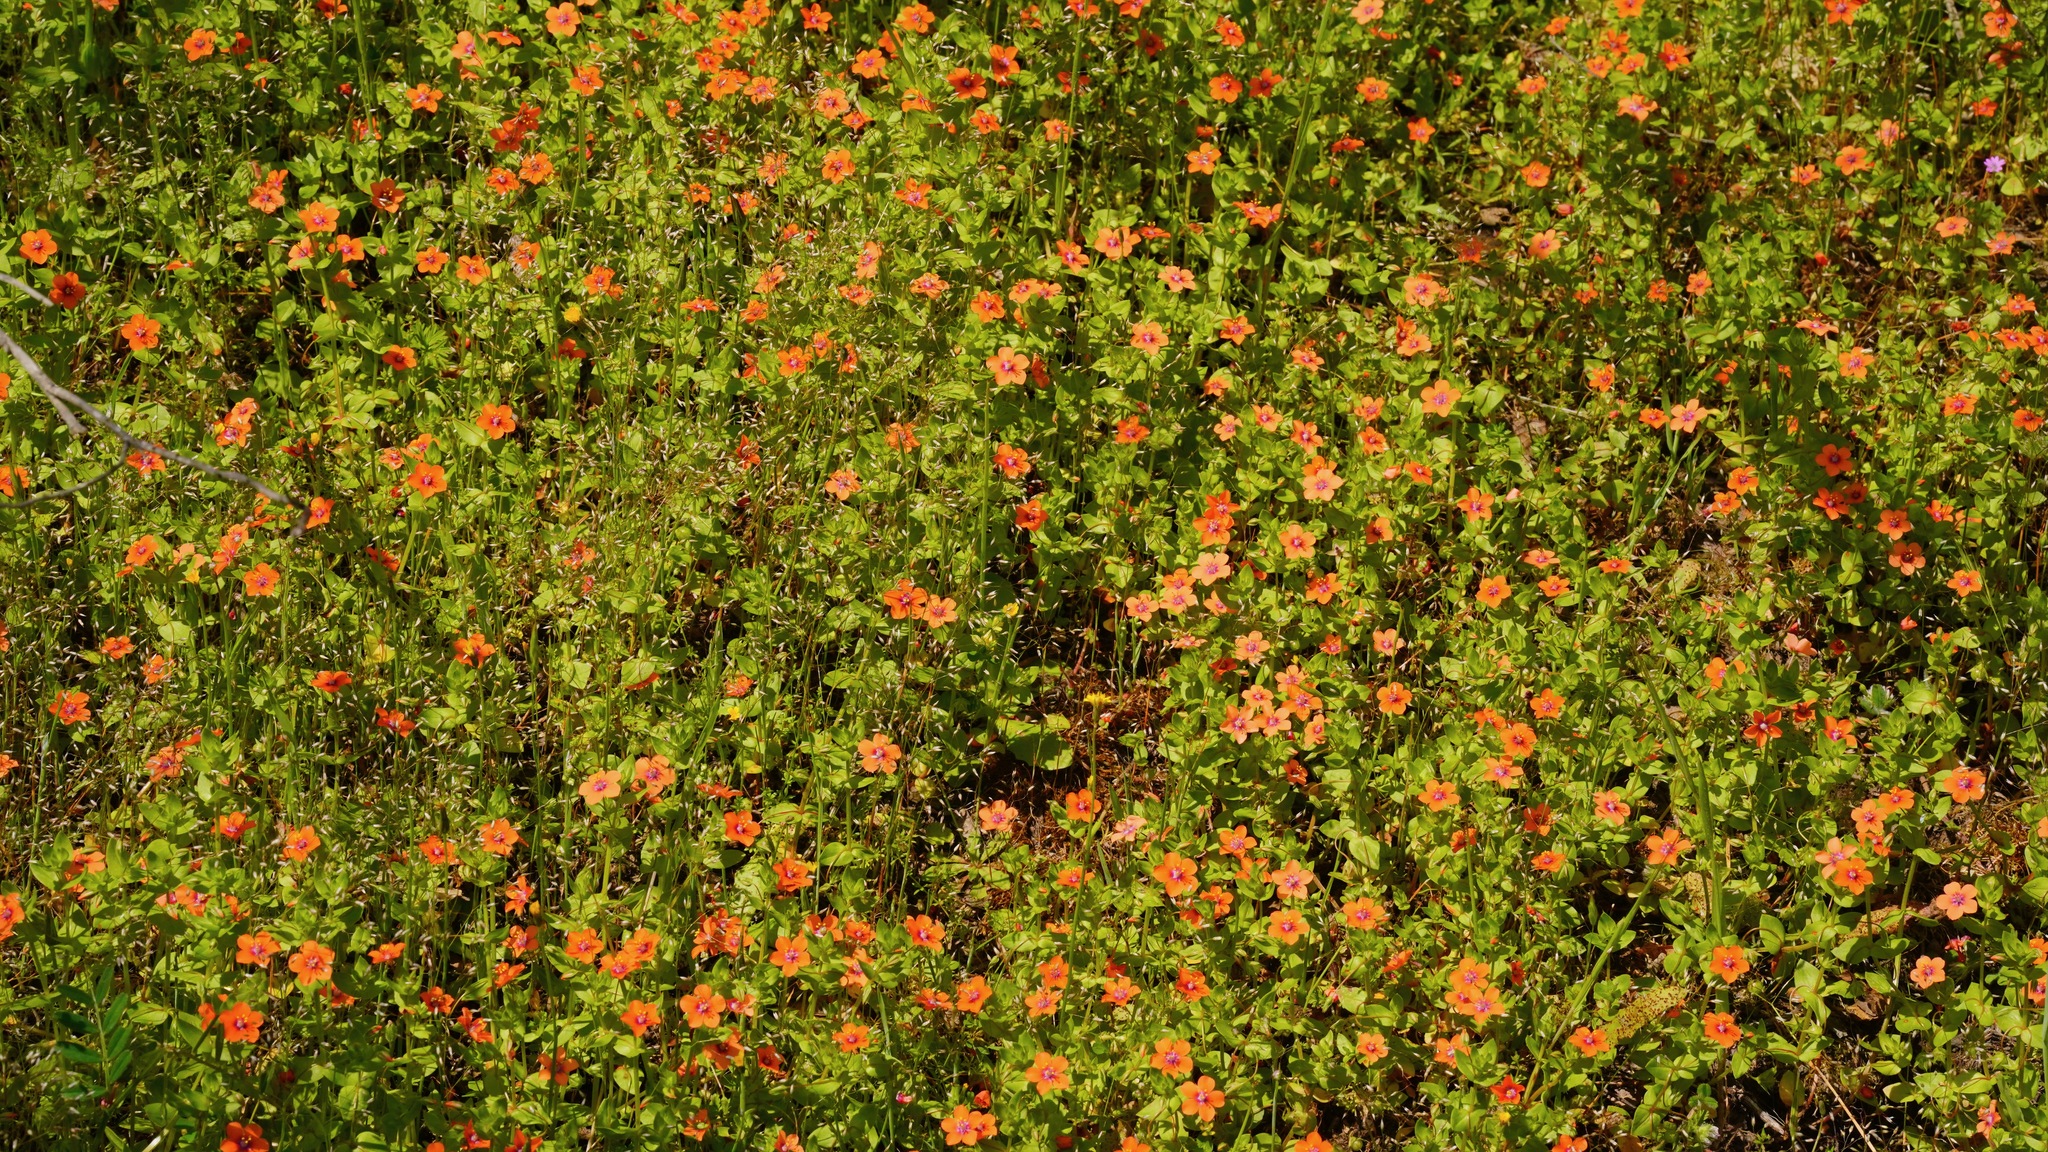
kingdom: Plantae
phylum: Tracheophyta
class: Magnoliopsida
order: Ericales
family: Primulaceae
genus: Lysimachia
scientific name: Lysimachia arvensis
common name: Scarlet pimpernel
